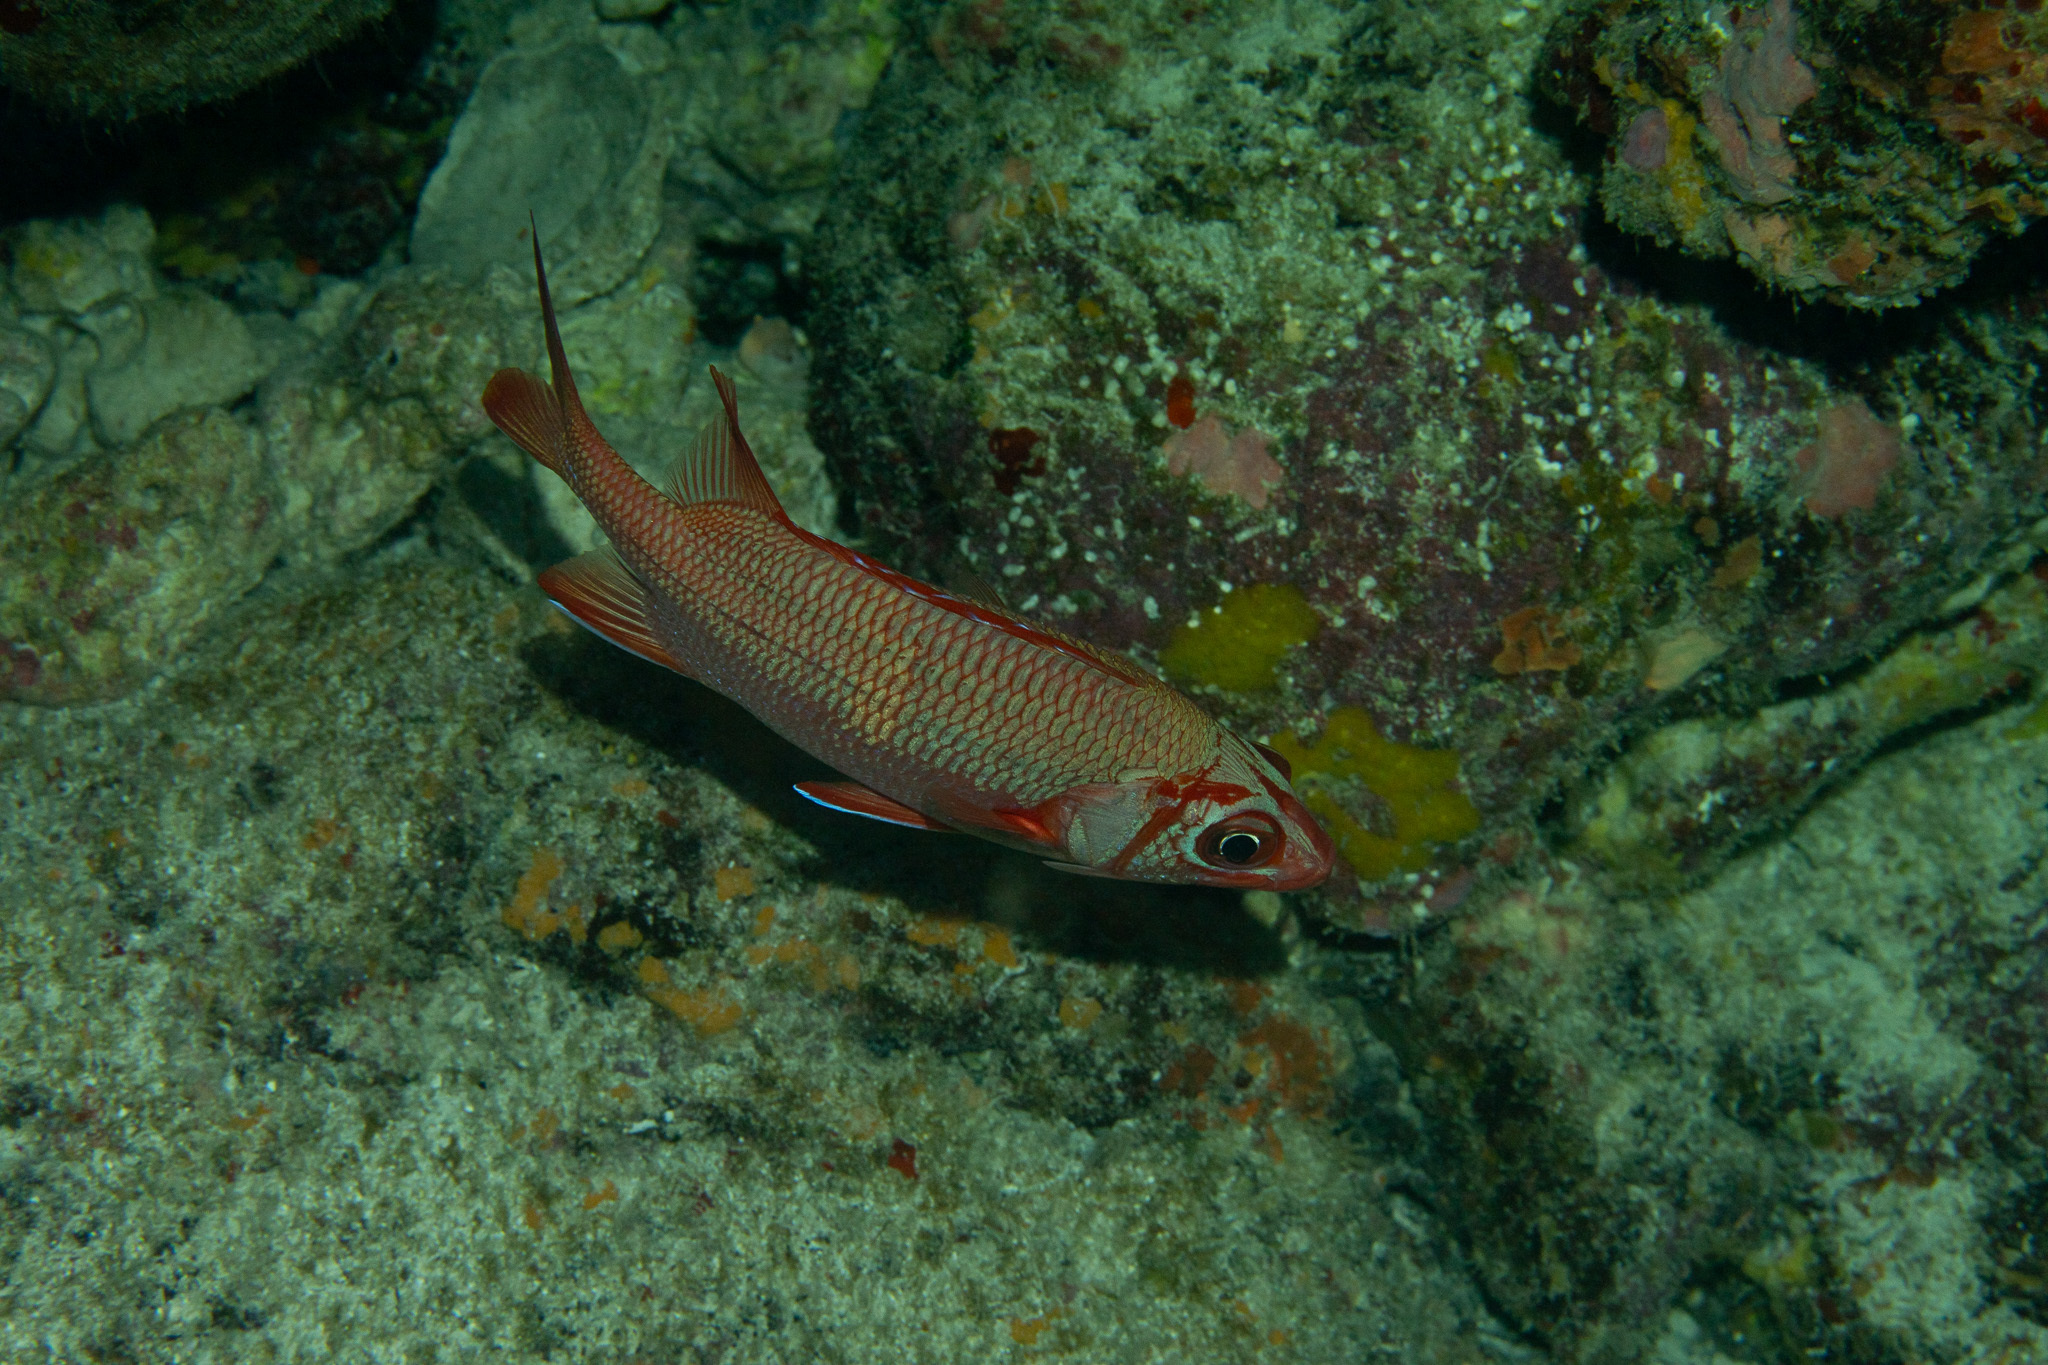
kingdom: Animalia
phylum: Chordata
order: Beryciformes
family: Holocentridae
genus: Sargocentron
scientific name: Sargocentron spiniferum
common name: Giant squirrelfish
